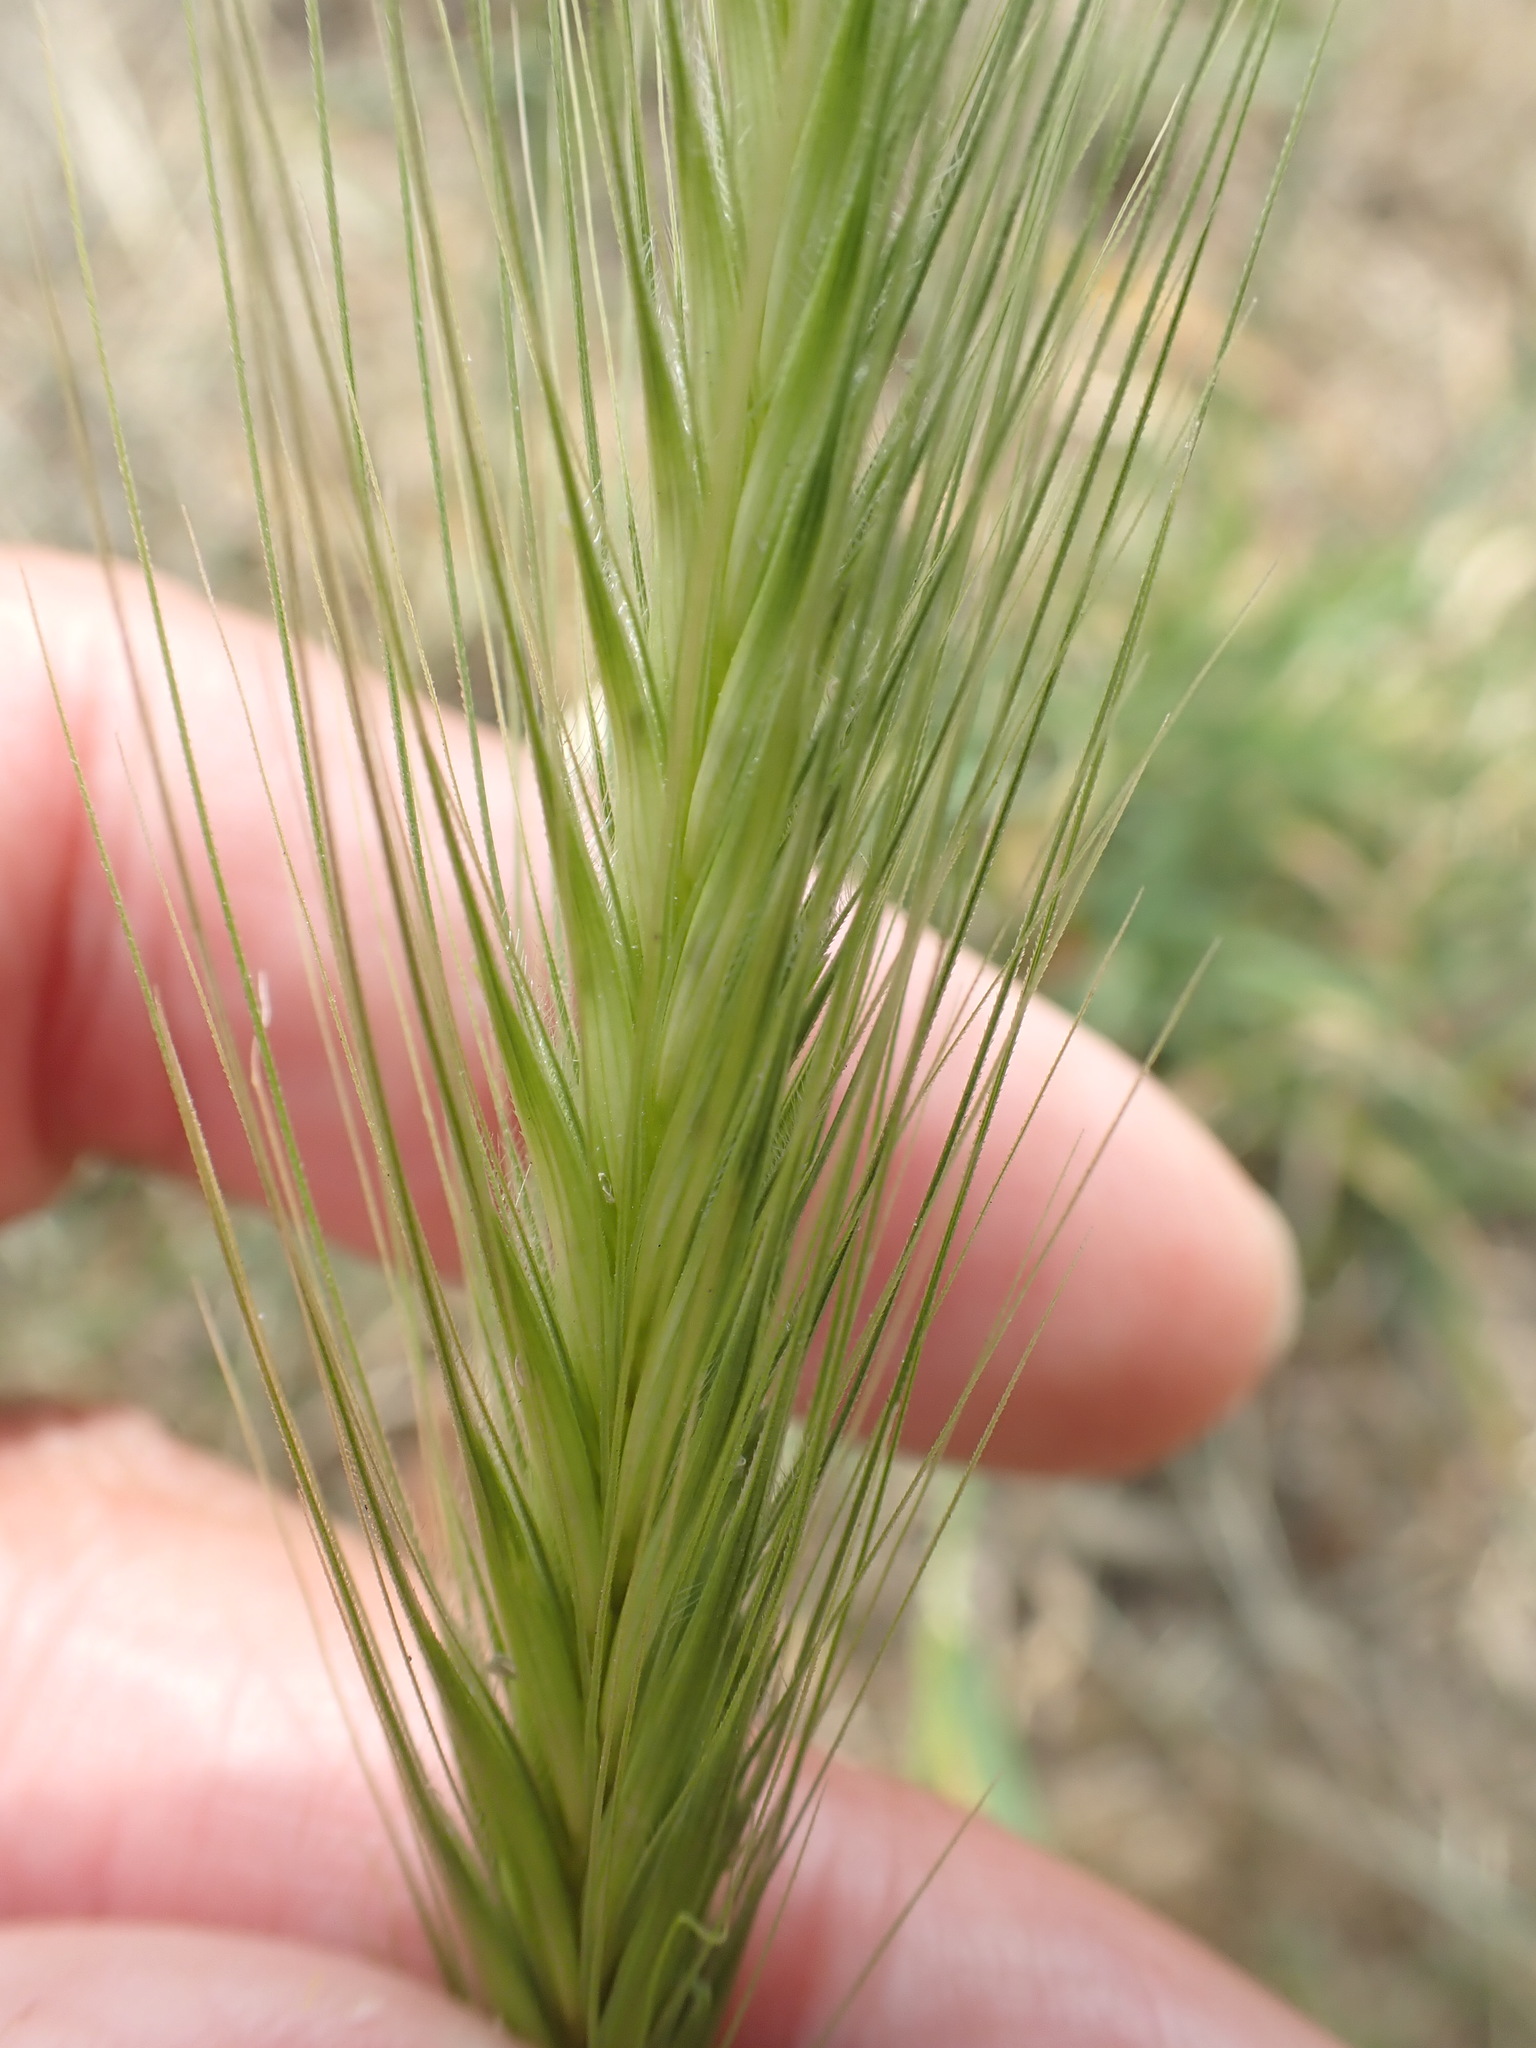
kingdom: Plantae
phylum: Tracheophyta
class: Liliopsida
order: Poales
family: Poaceae
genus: Hordeum
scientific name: Hordeum murinum
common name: Wall barley
